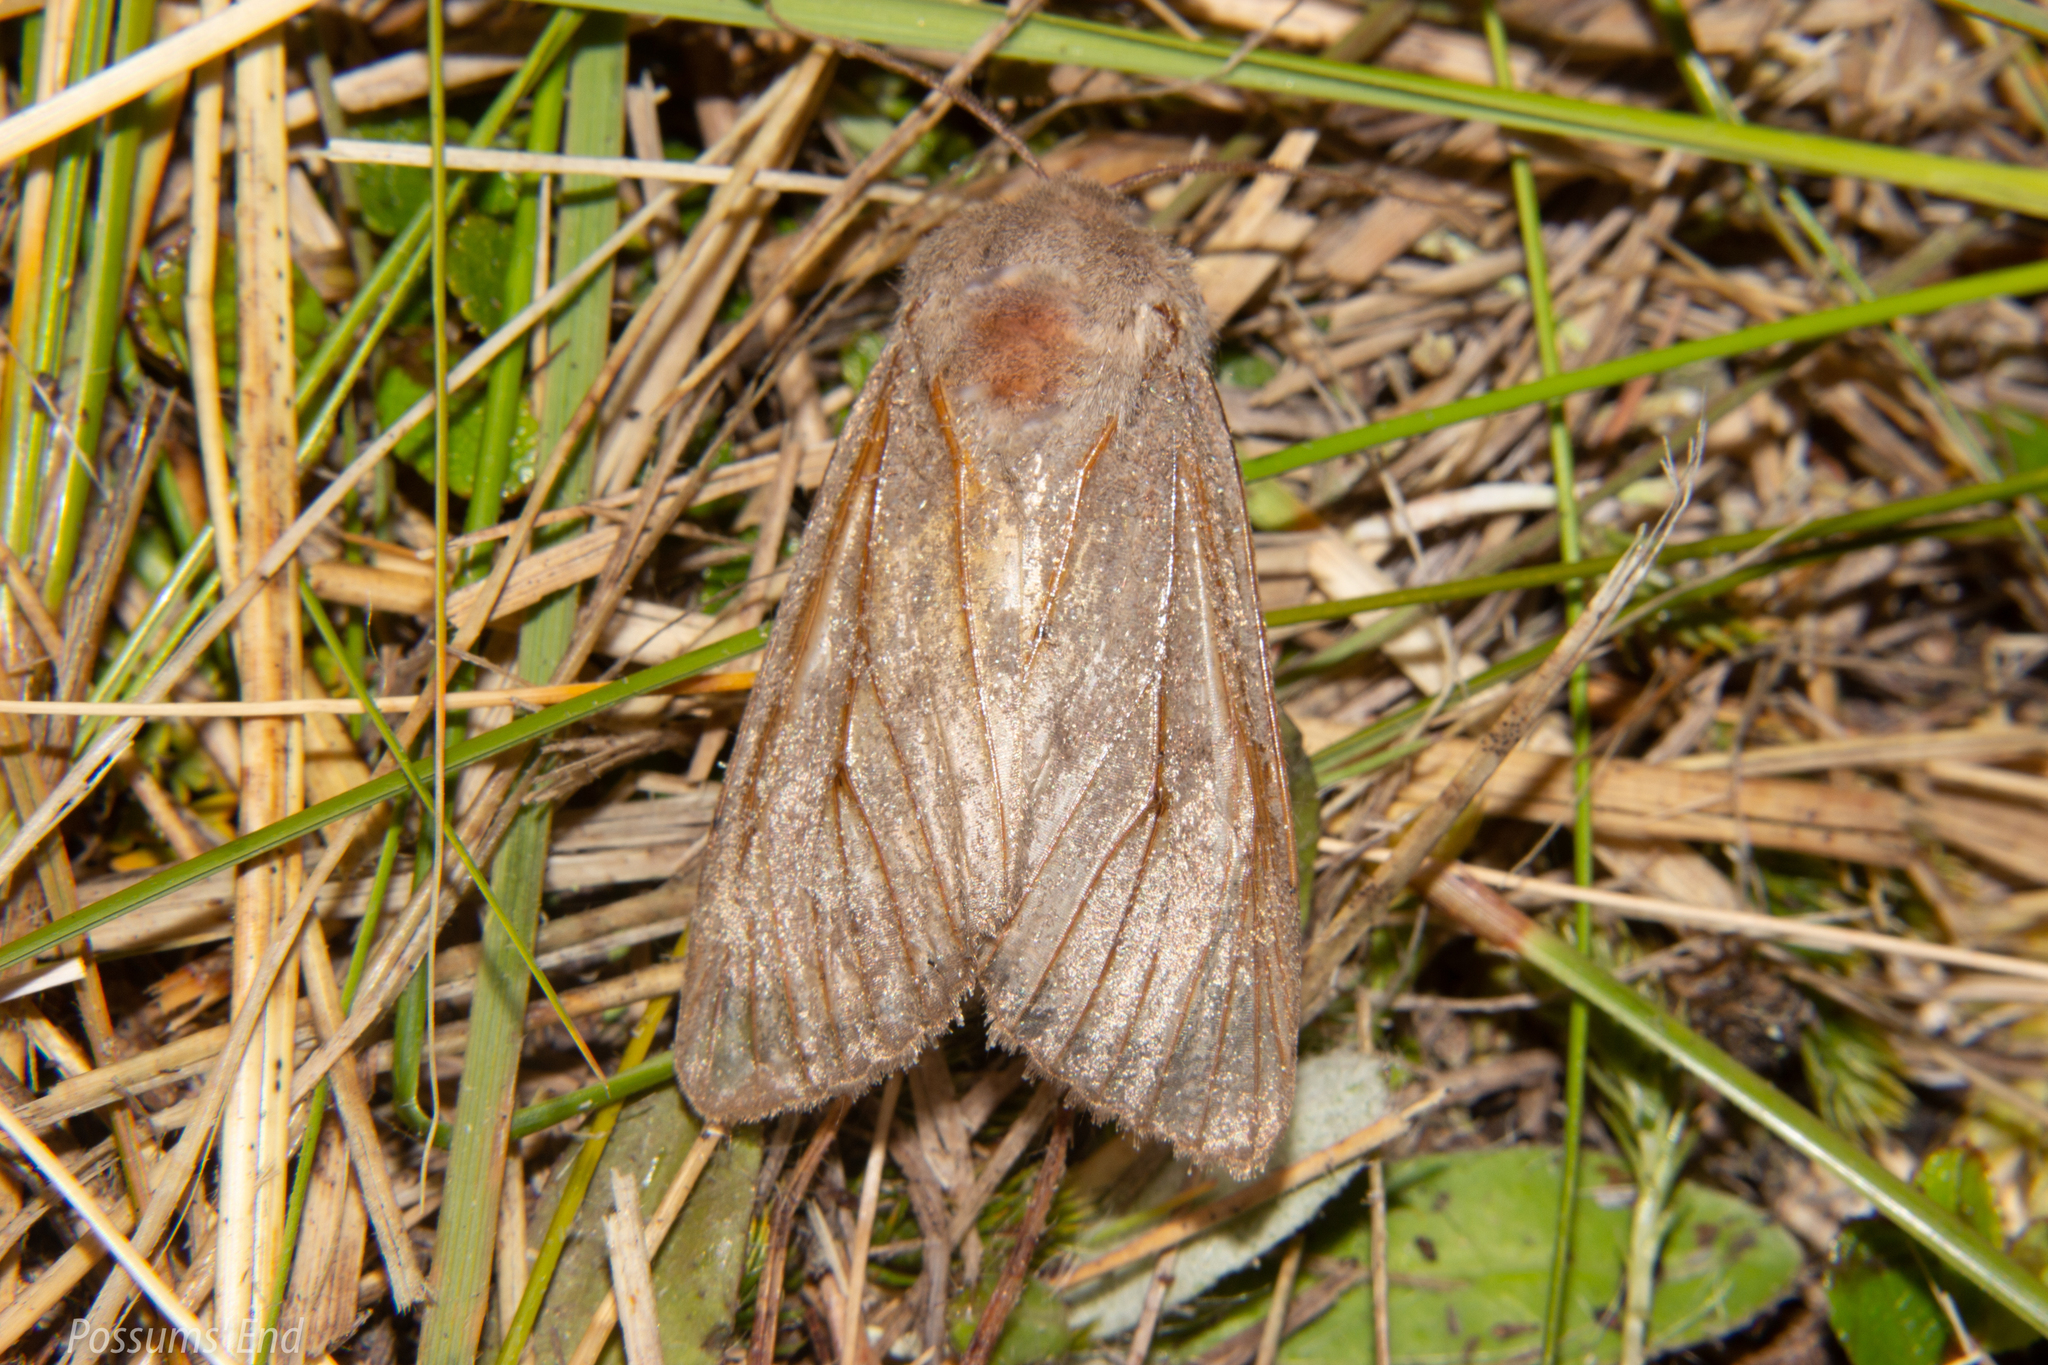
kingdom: Animalia
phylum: Arthropoda
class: Insecta
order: Lepidoptera
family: Noctuidae
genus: Ichneutica
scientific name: Ichneutica nullifera
